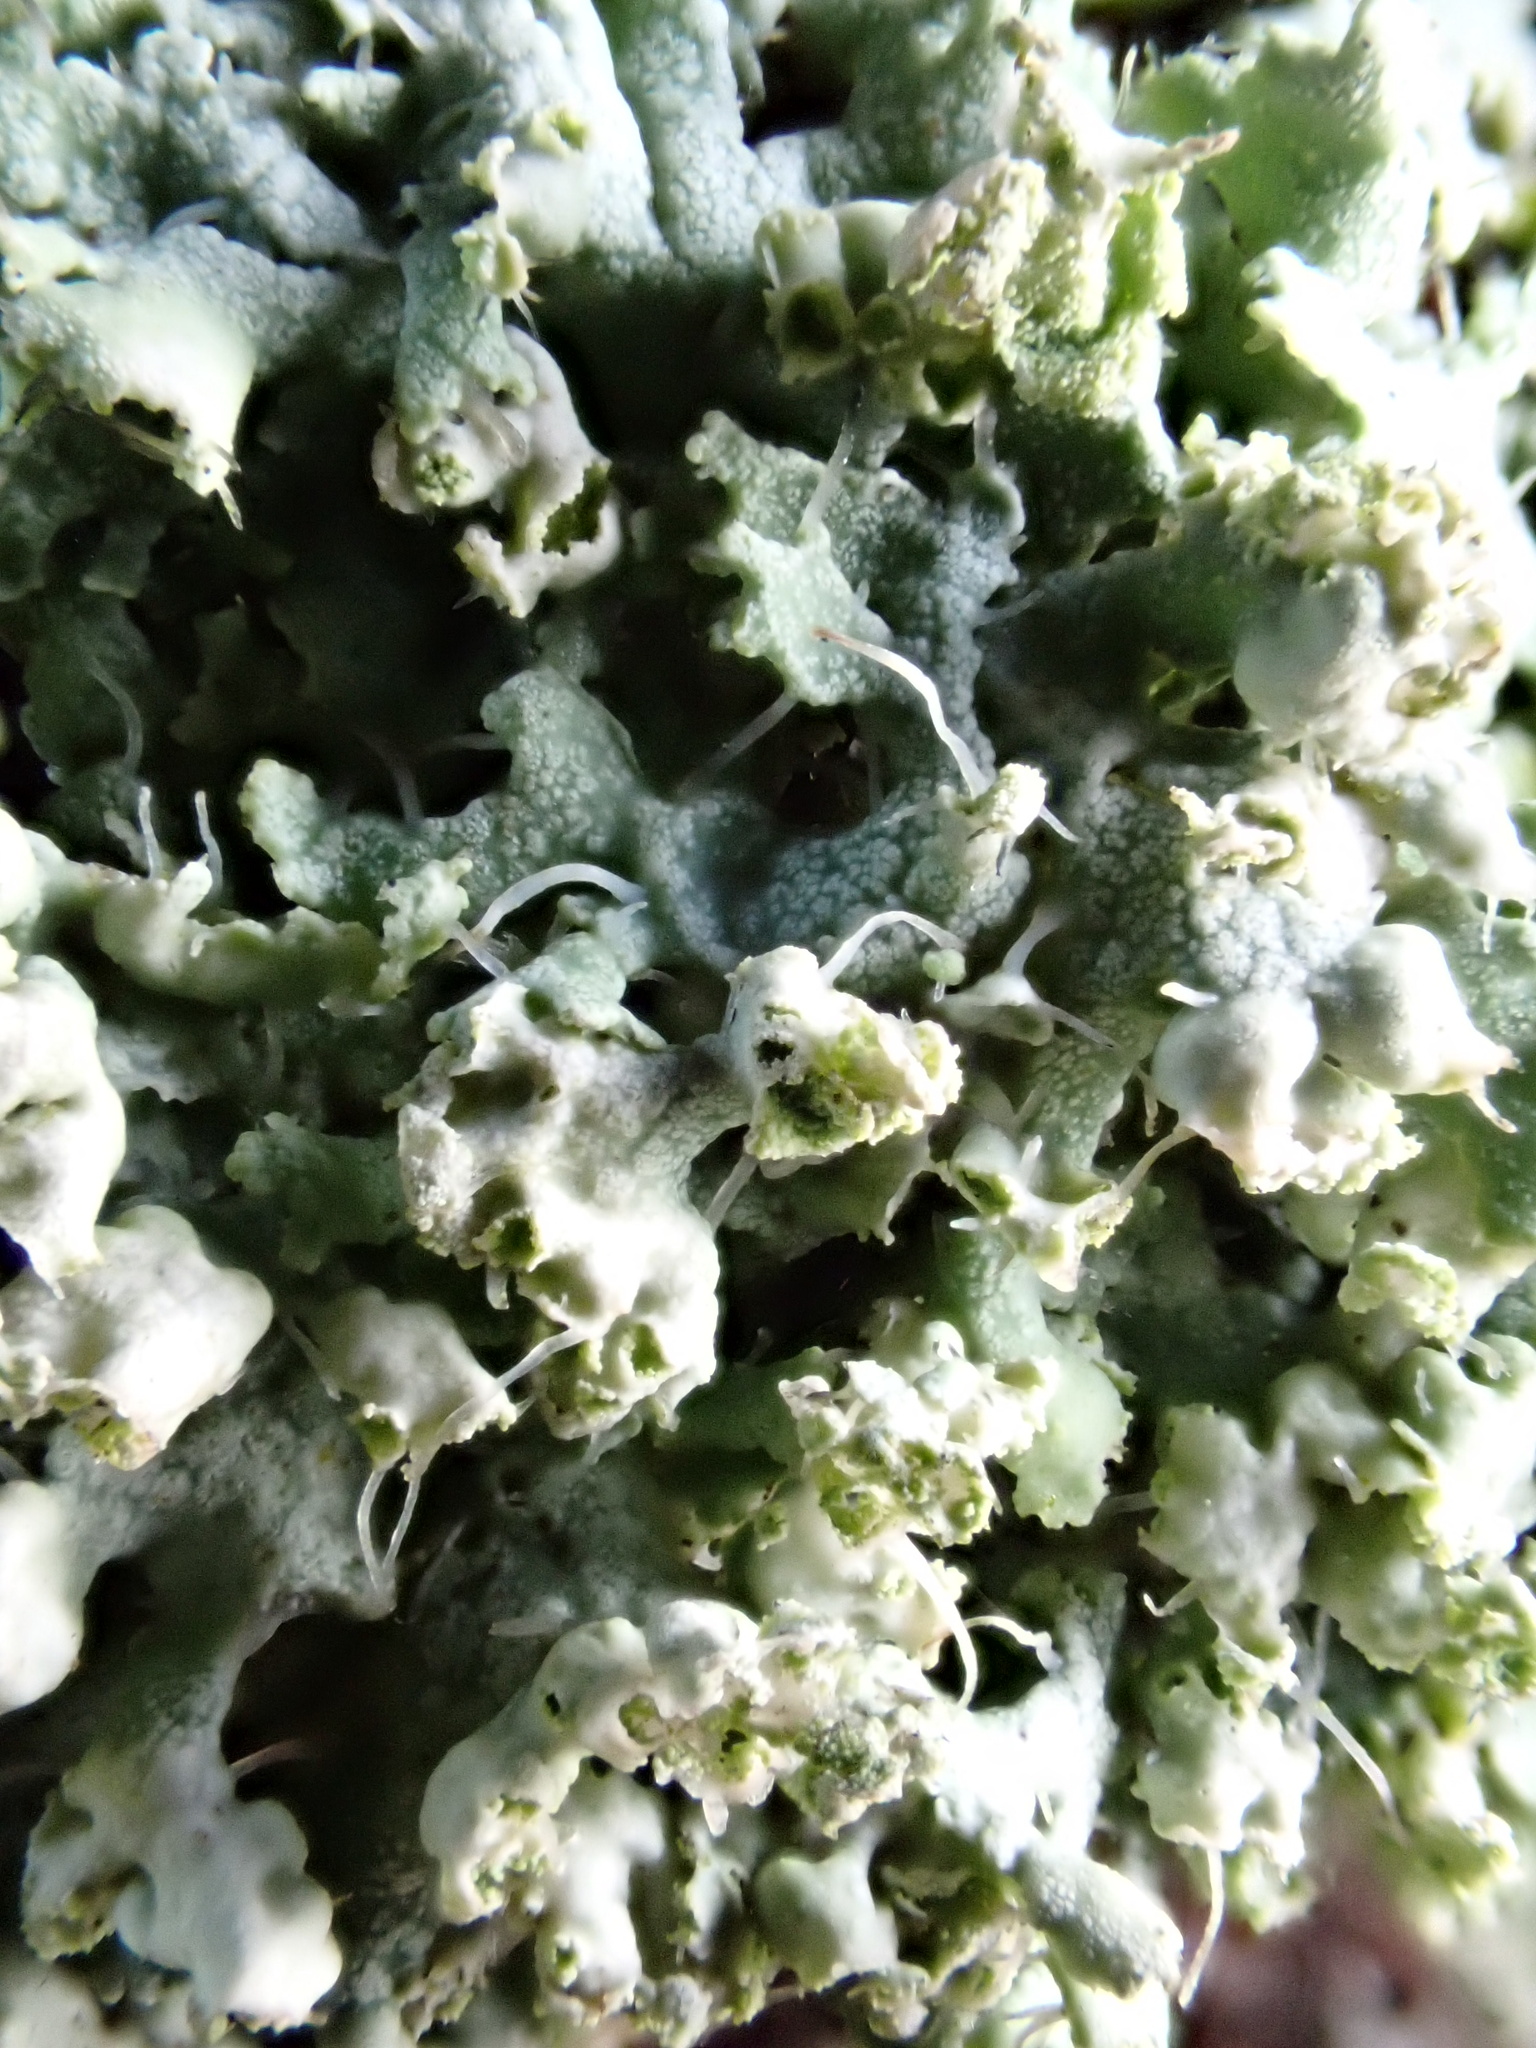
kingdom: Fungi
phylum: Ascomycota
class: Lecanoromycetes
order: Caliciales
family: Physciaceae
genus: Physcia
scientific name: Physcia adscendens
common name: Hooded rosette lichen
